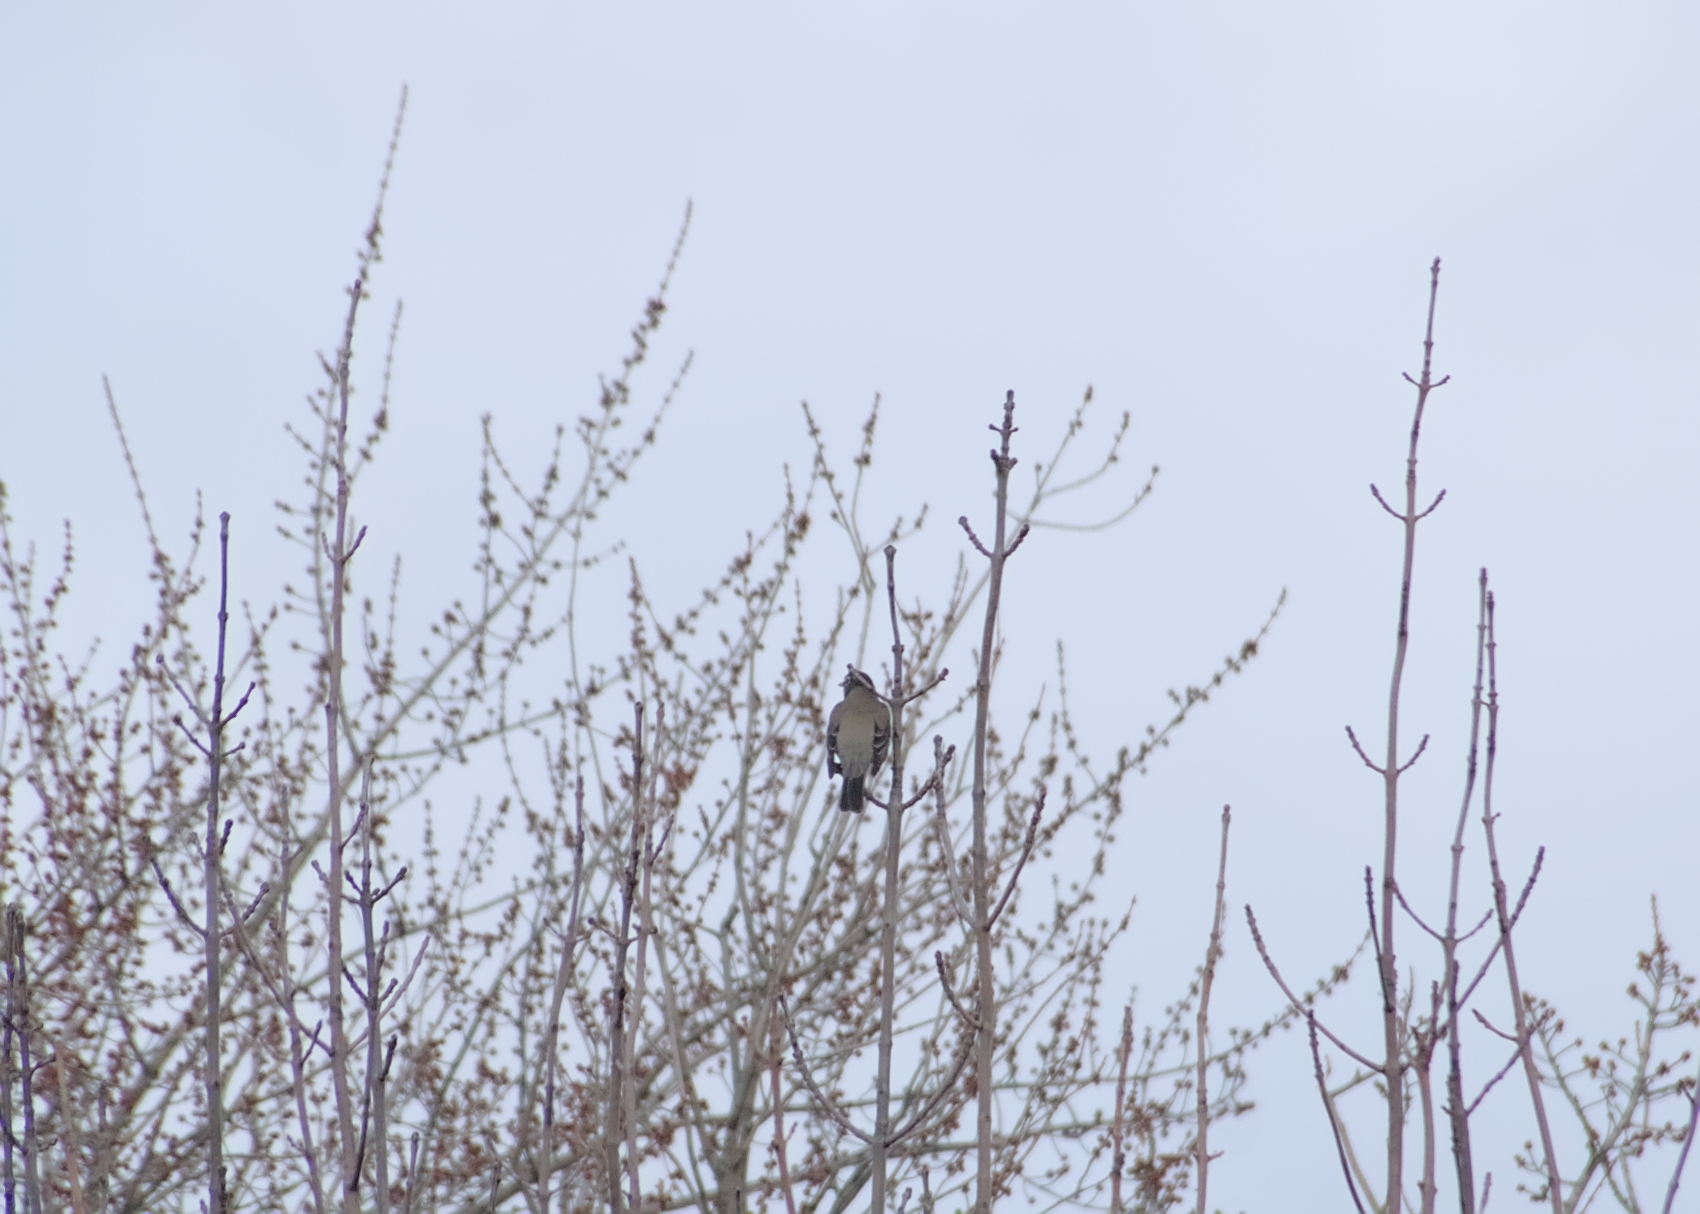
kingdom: Animalia
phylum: Chordata
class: Aves
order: Passeriformes
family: Turdidae
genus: Turdus
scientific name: Turdus migratorius
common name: American robin
